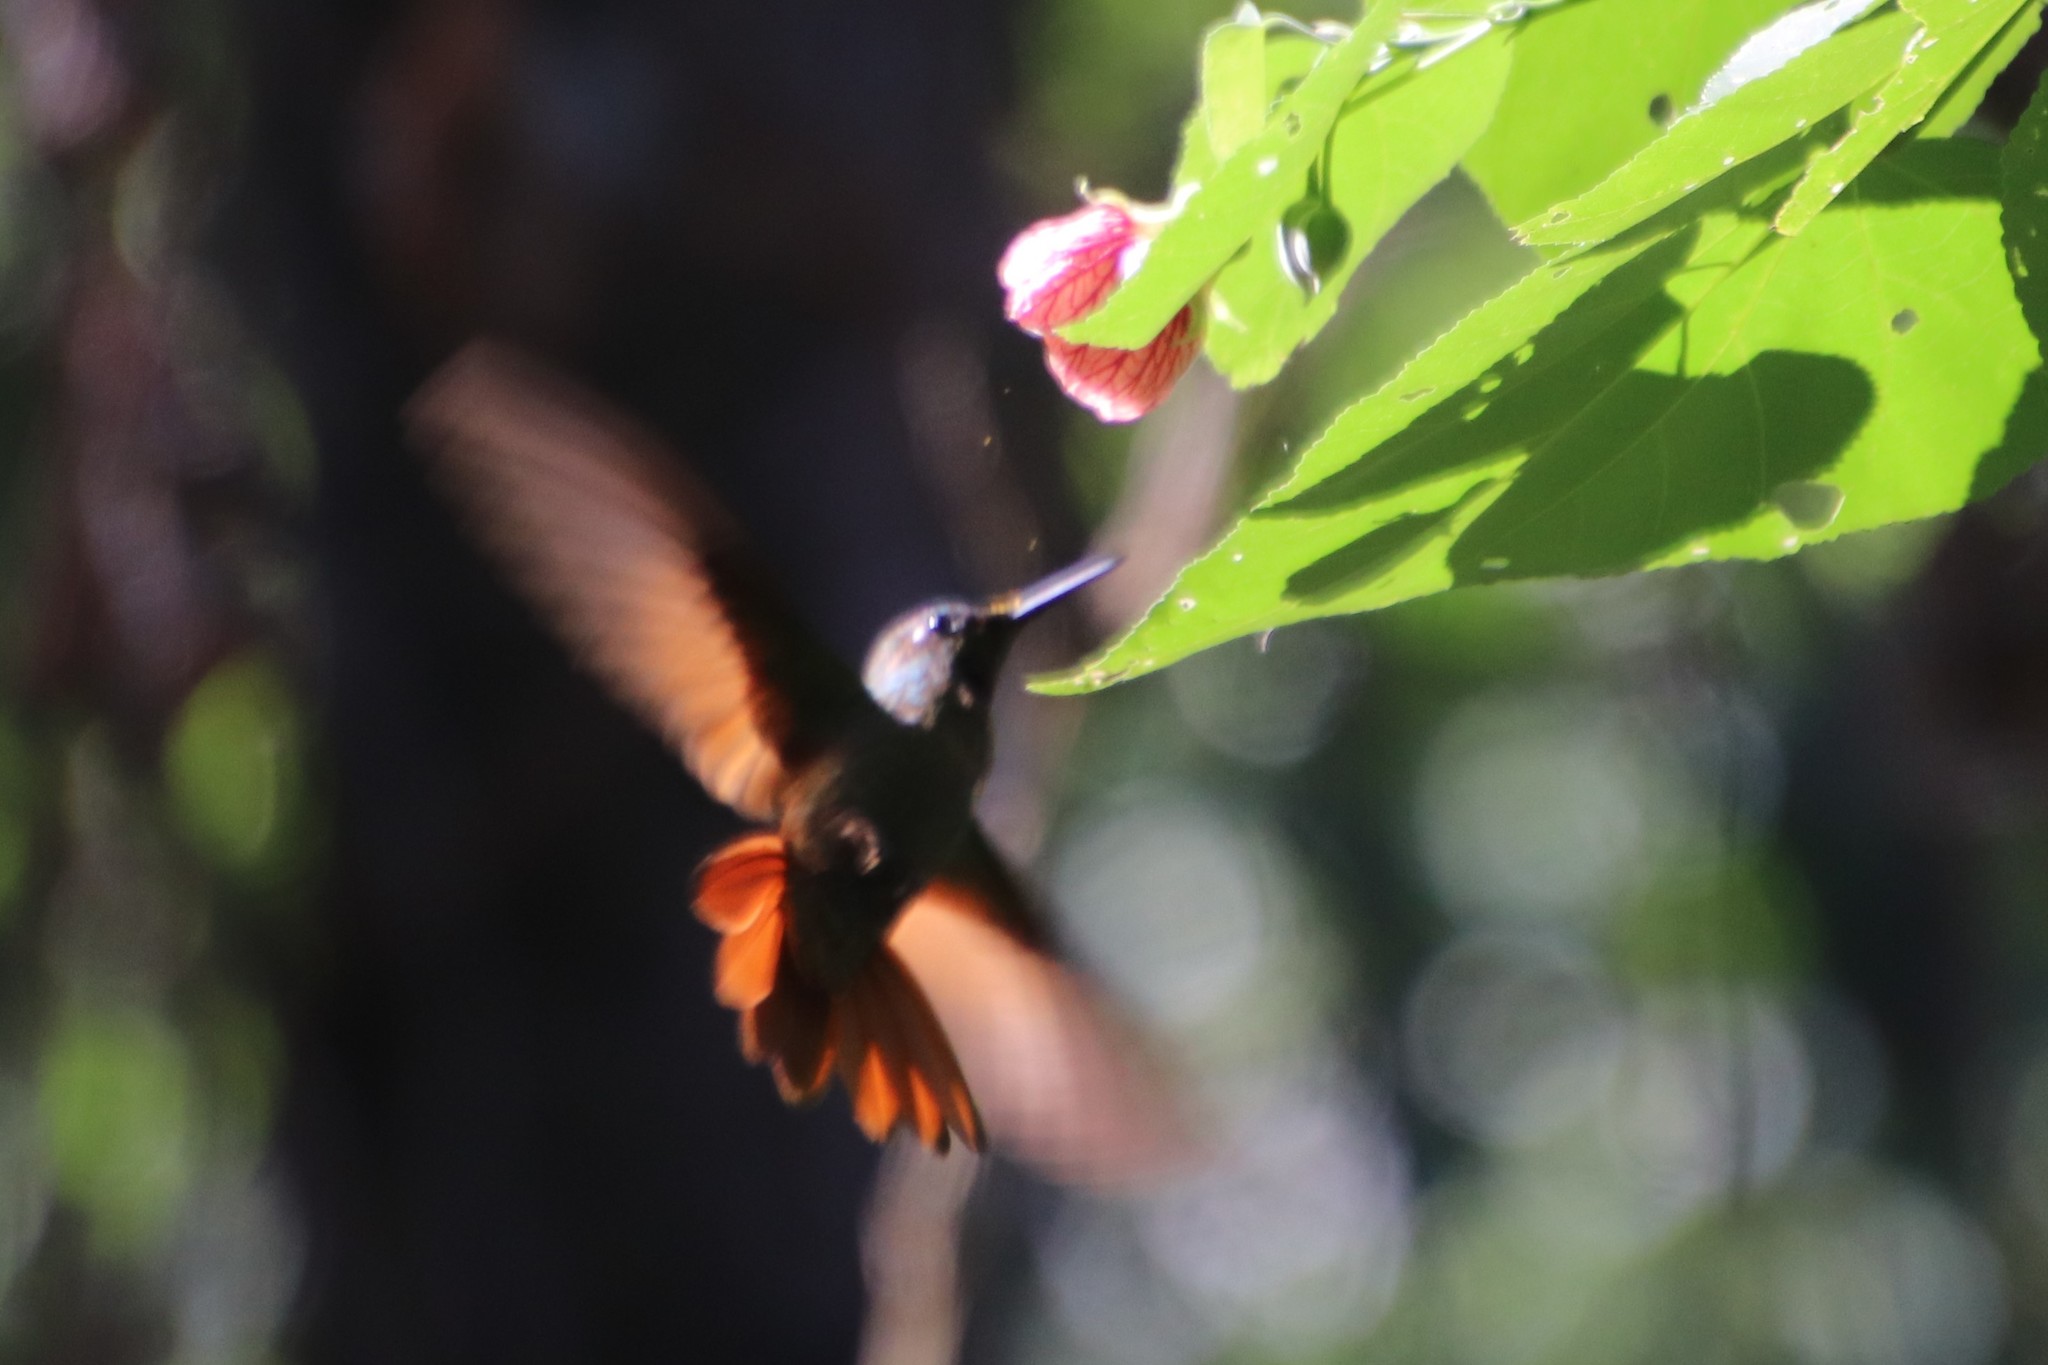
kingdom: Animalia
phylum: Chordata
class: Aves
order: Apodiformes
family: Trochilidae
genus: Clytolaema
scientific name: Clytolaema rubricauda
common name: Brazilian ruby
